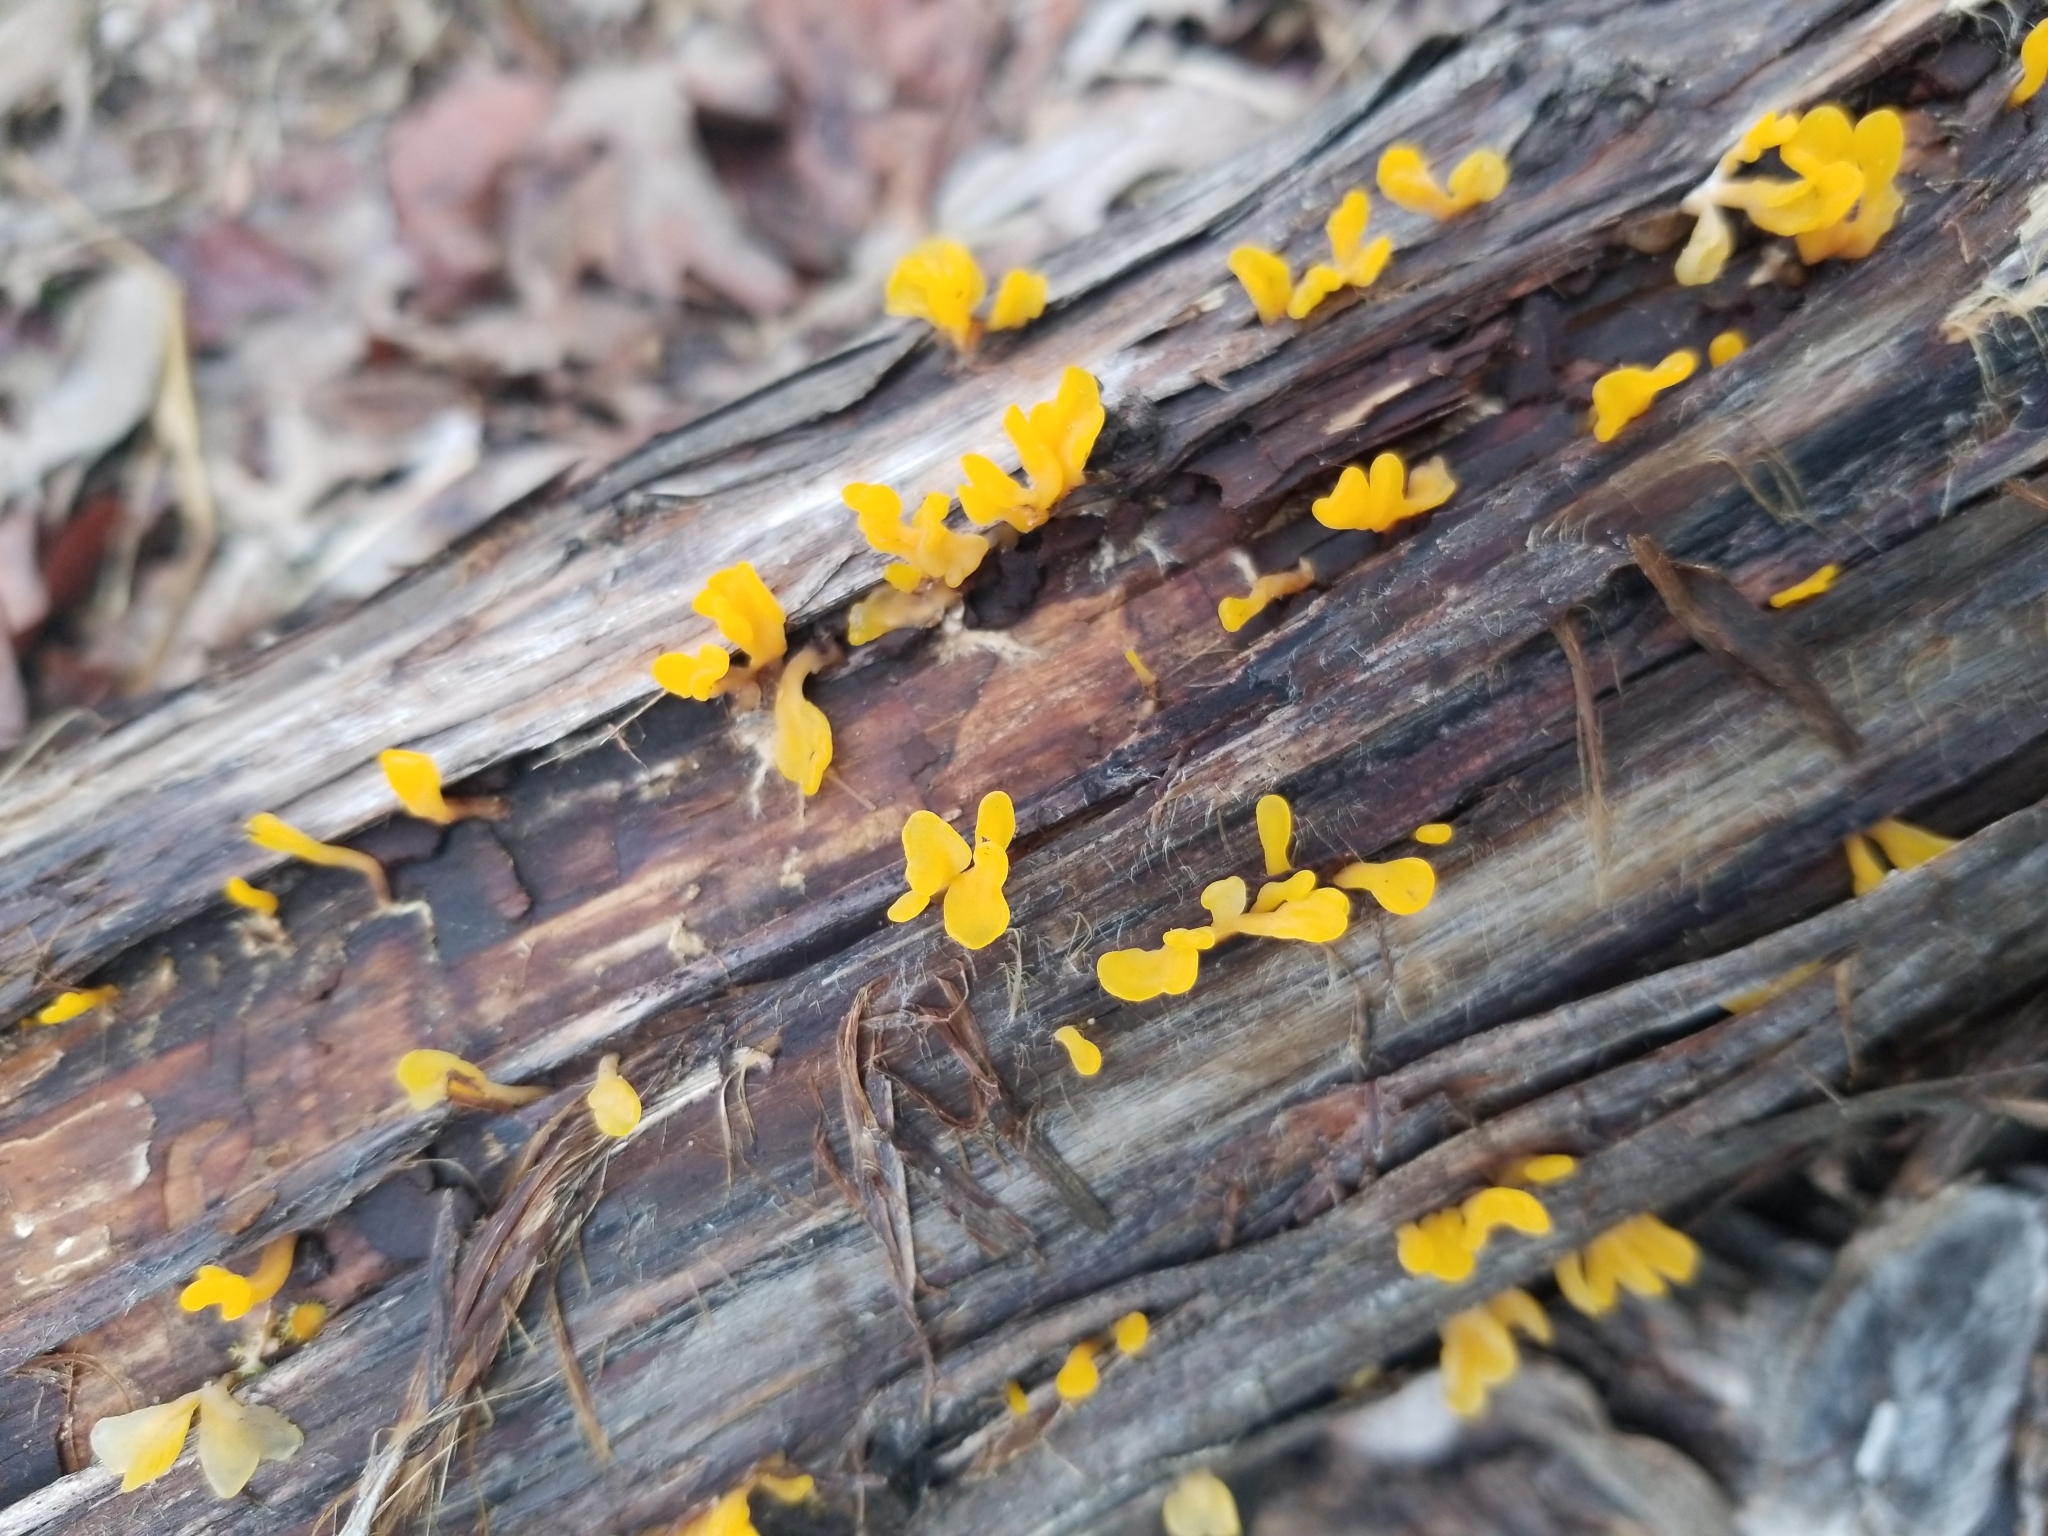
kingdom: Fungi
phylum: Basidiomycota
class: Dacrymycetes
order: Dacrymycetales
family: Dacrymycetaceae
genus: Dacrymyces
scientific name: Dacrymyces spathularius
